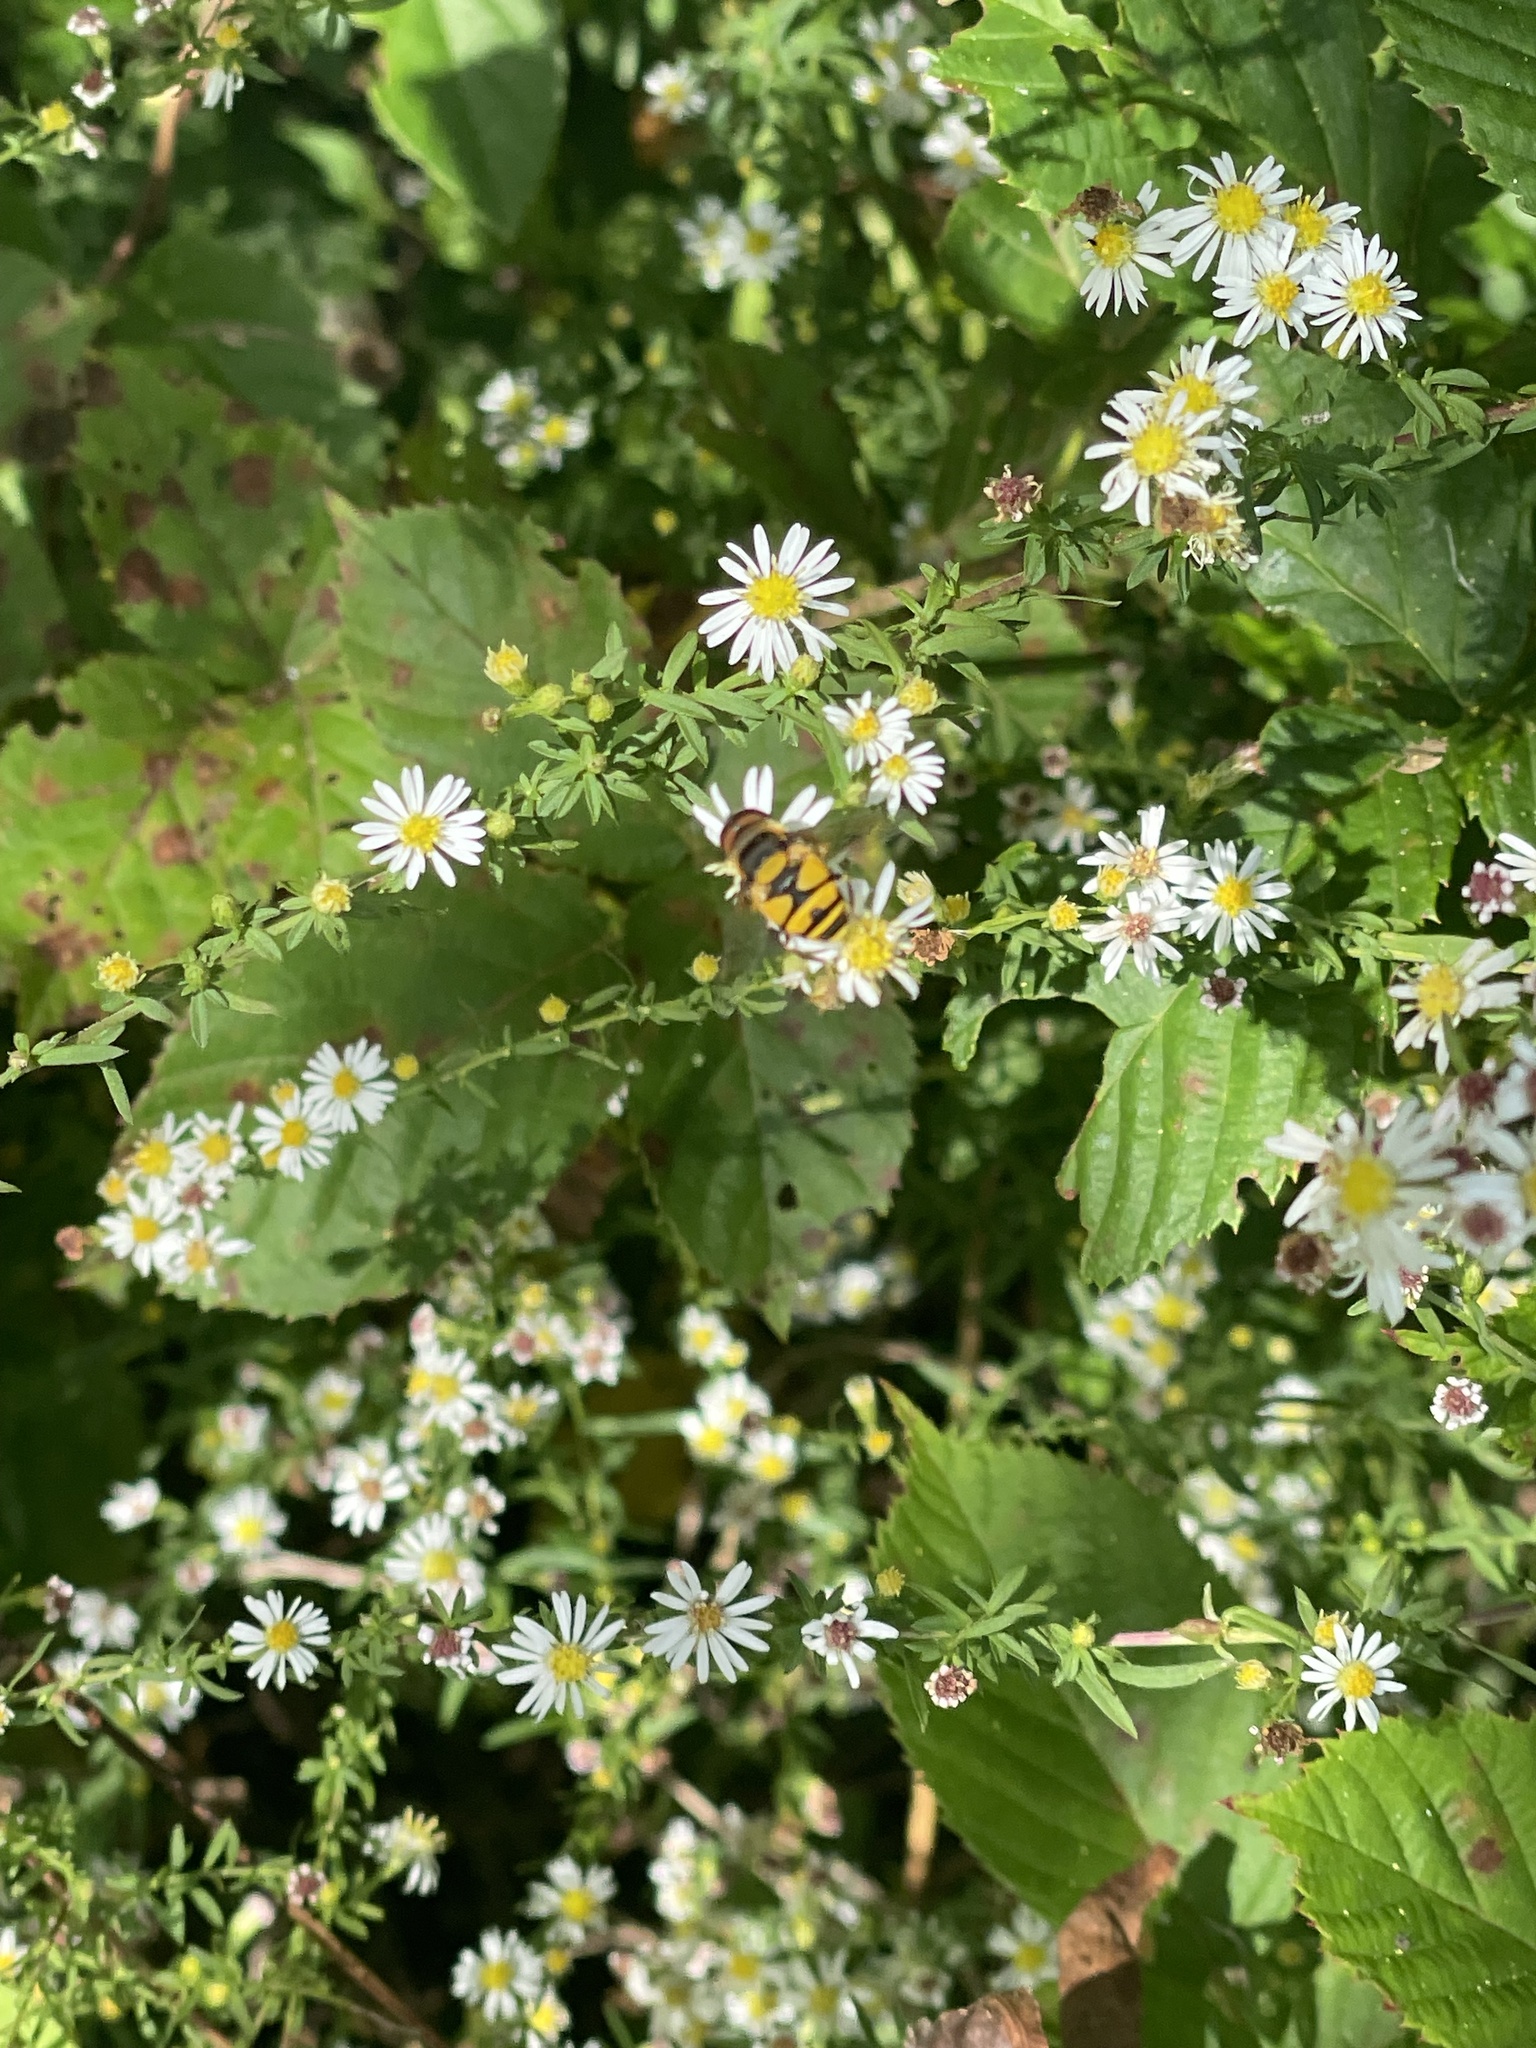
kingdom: Animalia
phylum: Arthropoda
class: Insecta
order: Diptera
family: Syrphidae
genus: Eristalis
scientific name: Eristalis transversa
